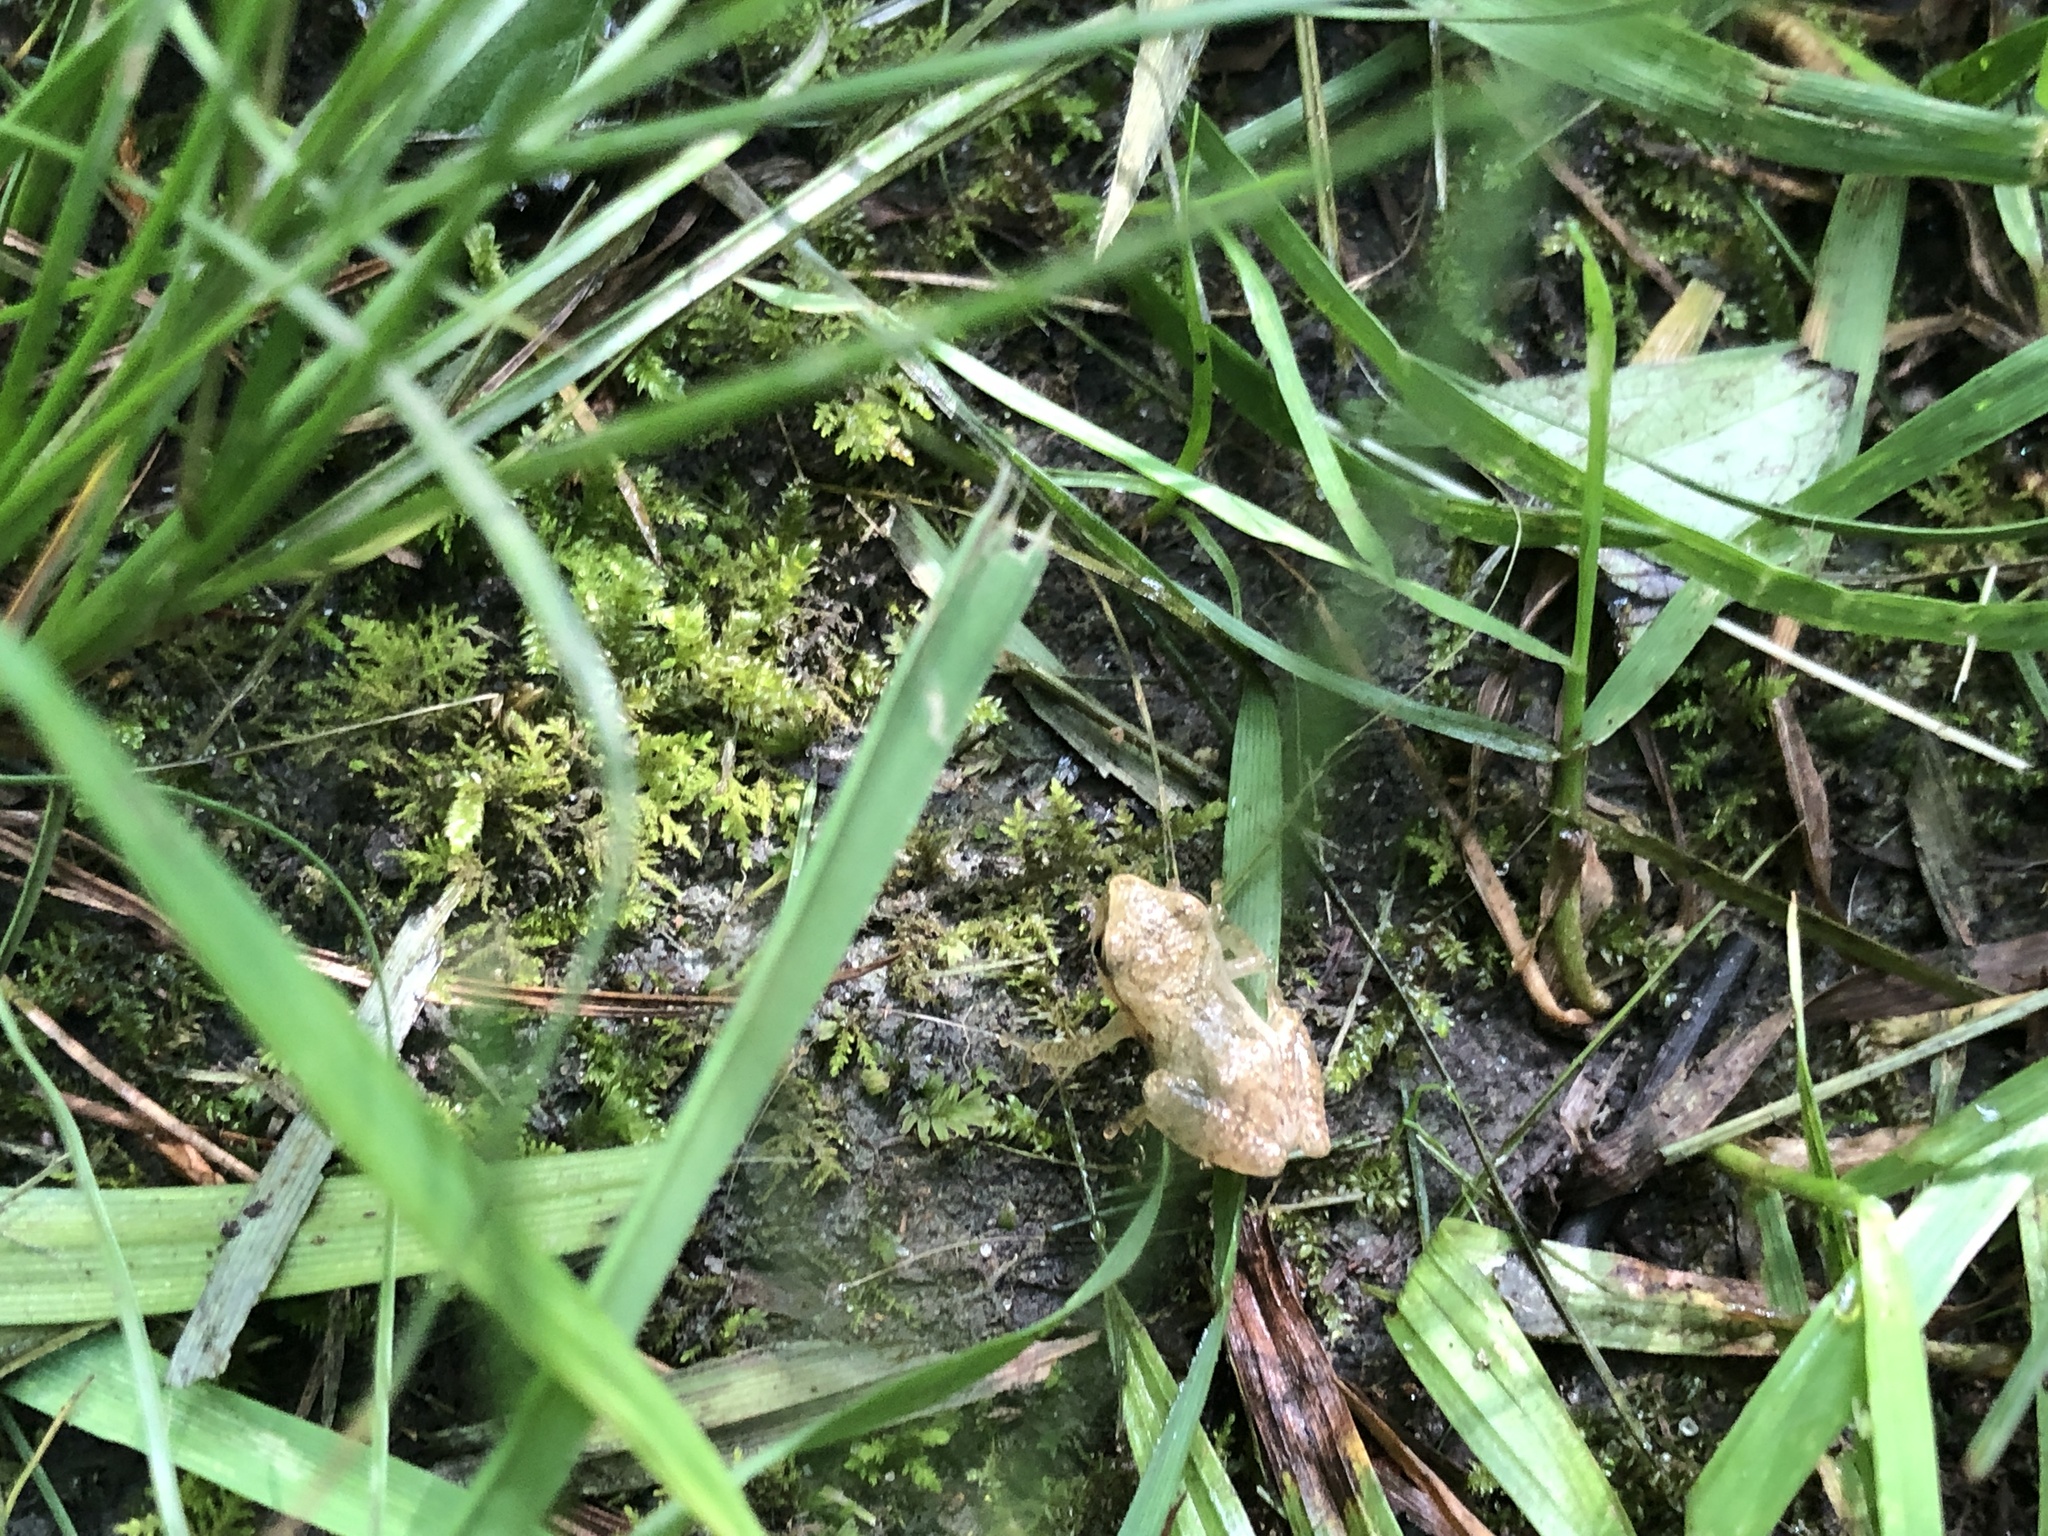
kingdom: Animalia
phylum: Chordata
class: Amphibia
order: Anura
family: Hylidae
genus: Pseudacris
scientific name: Pseudacris crucifer
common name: Spring peeper
